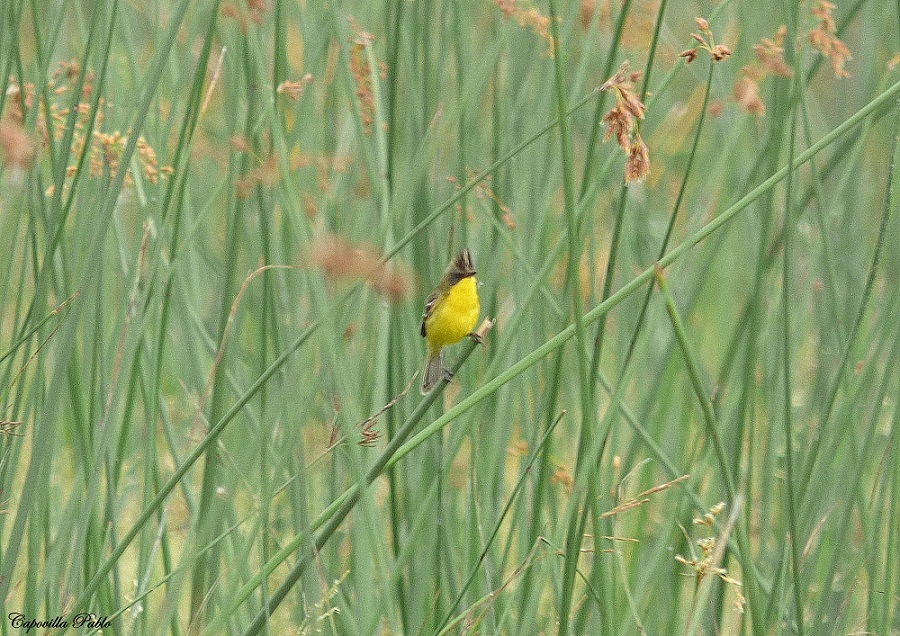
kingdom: Animalia
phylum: Chordata
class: Aves
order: Passeriformes
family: Tyrannidae
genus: Pseudocolopteryx
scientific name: Pseudocolopteryx sclateri
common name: Crested doradito
